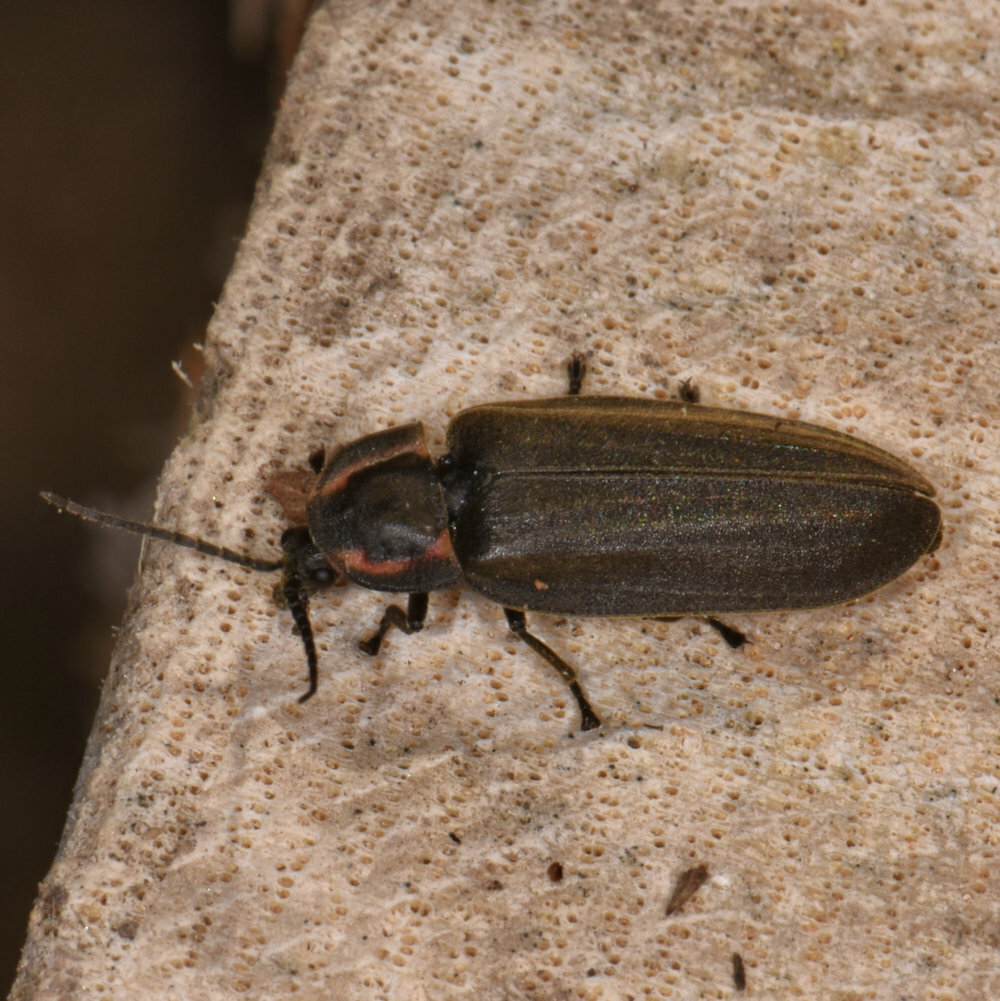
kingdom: Animalia
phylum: Arthropoda
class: Insecta
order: Coleoptera
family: Lampyridae
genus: Photinus
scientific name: Photinus corrusca
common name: Winter firefly
